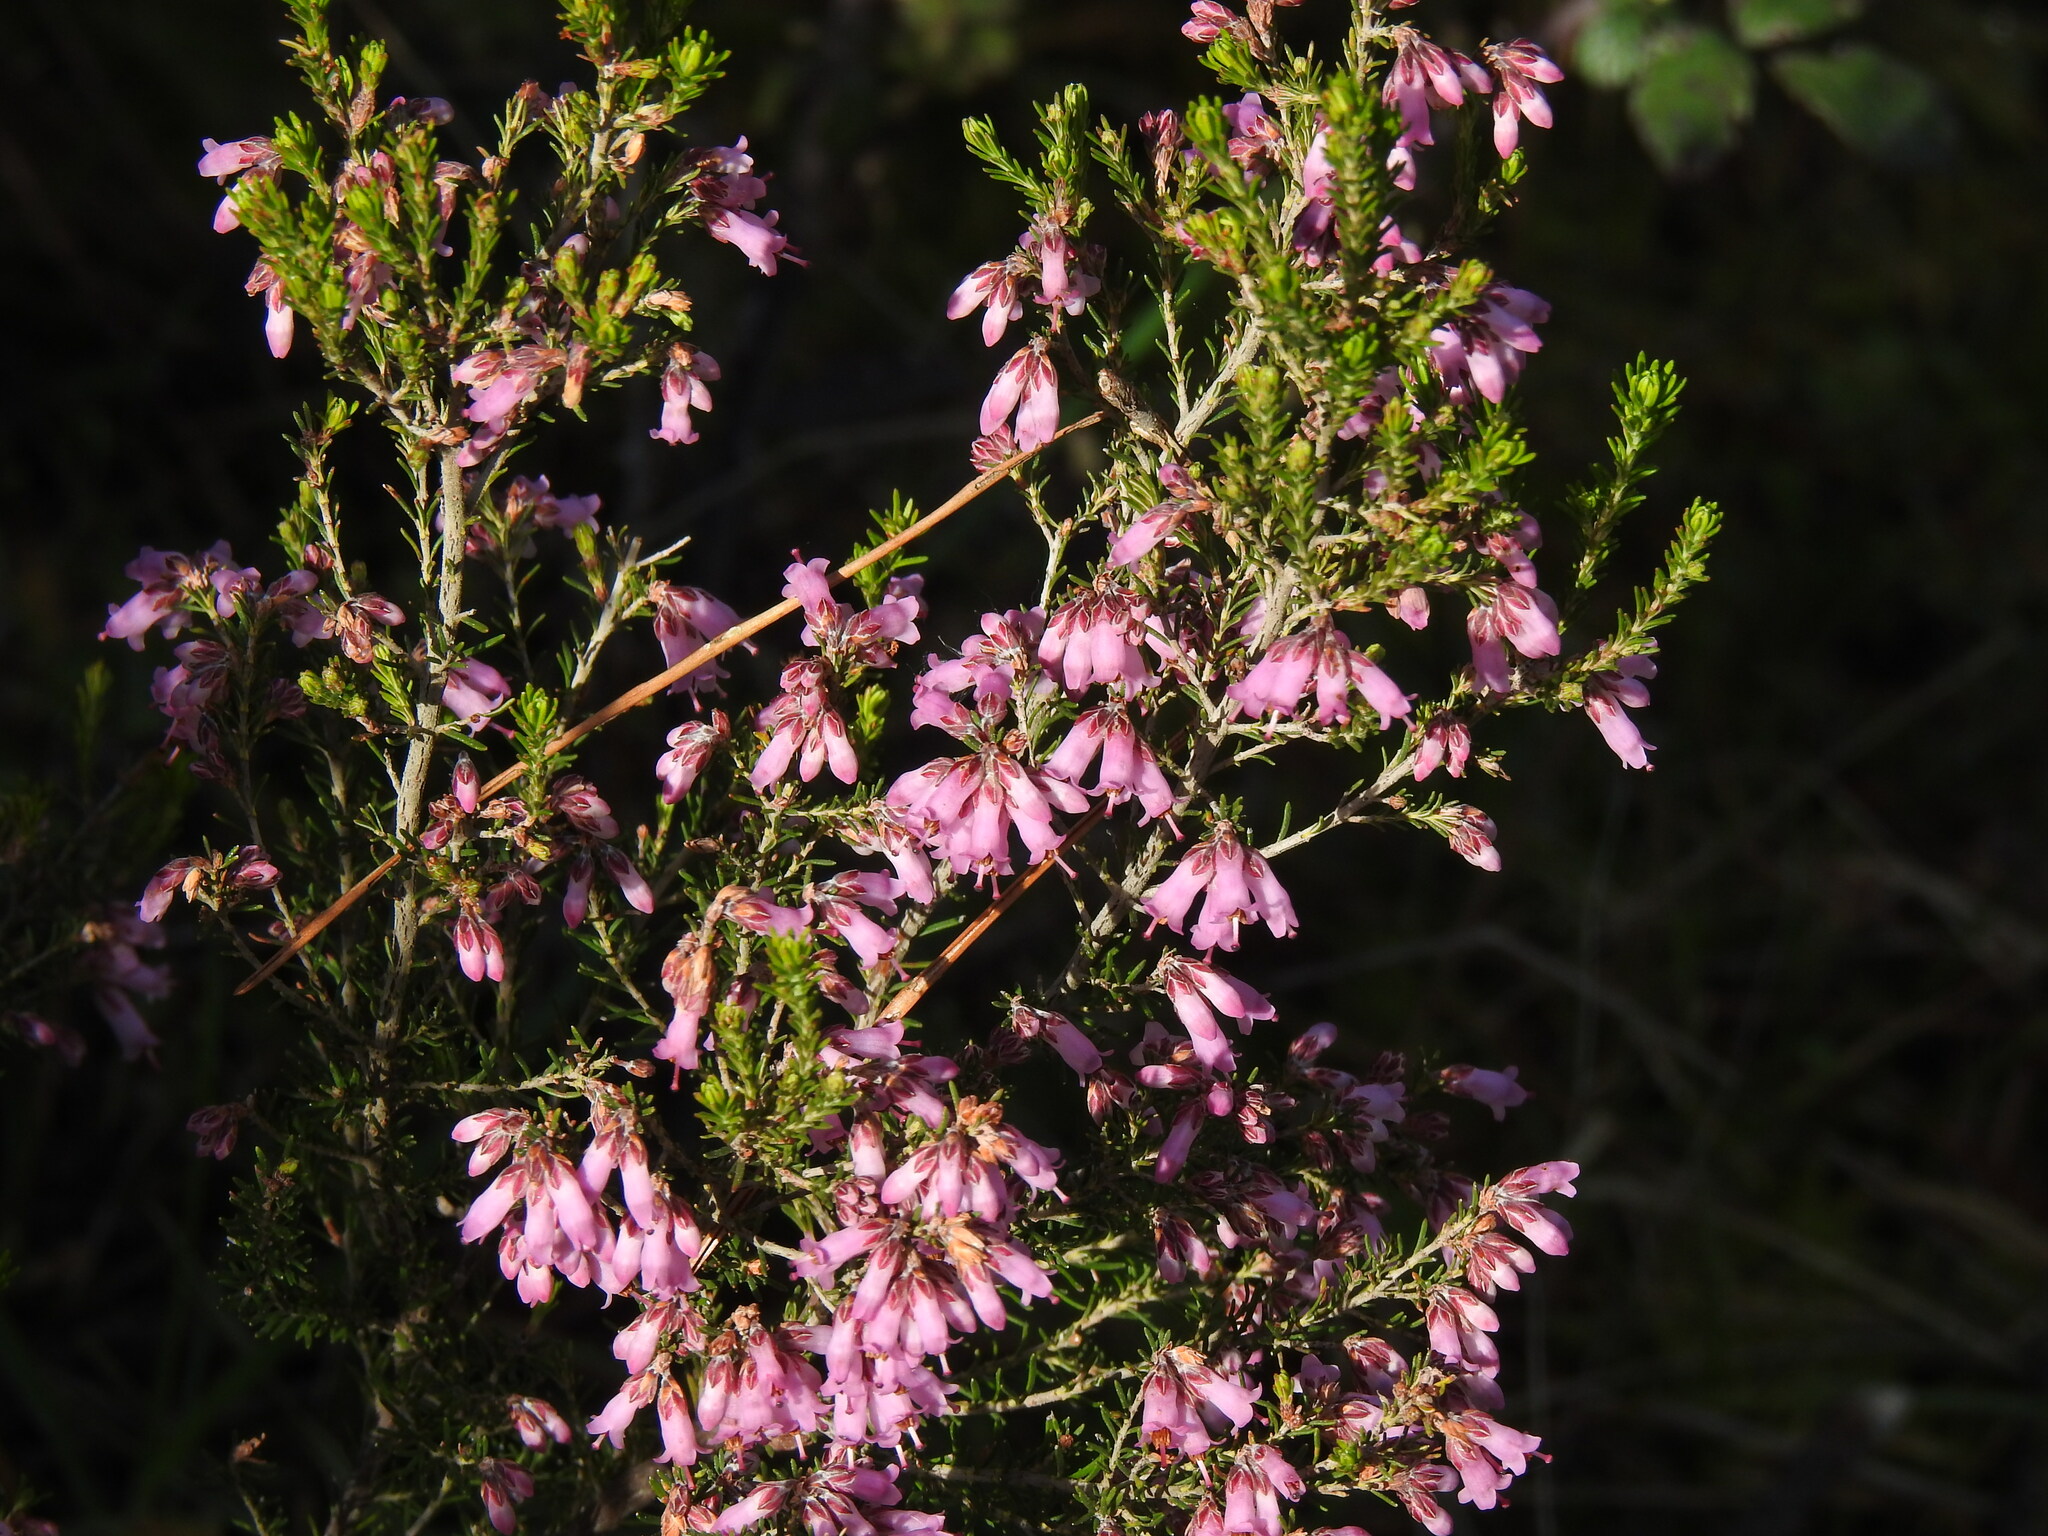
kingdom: Plantae
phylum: Tracheophyta
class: Magnoliopsida
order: Ericales
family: Ericaceae
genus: Erica
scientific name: Erica australis
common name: Spanish heath
